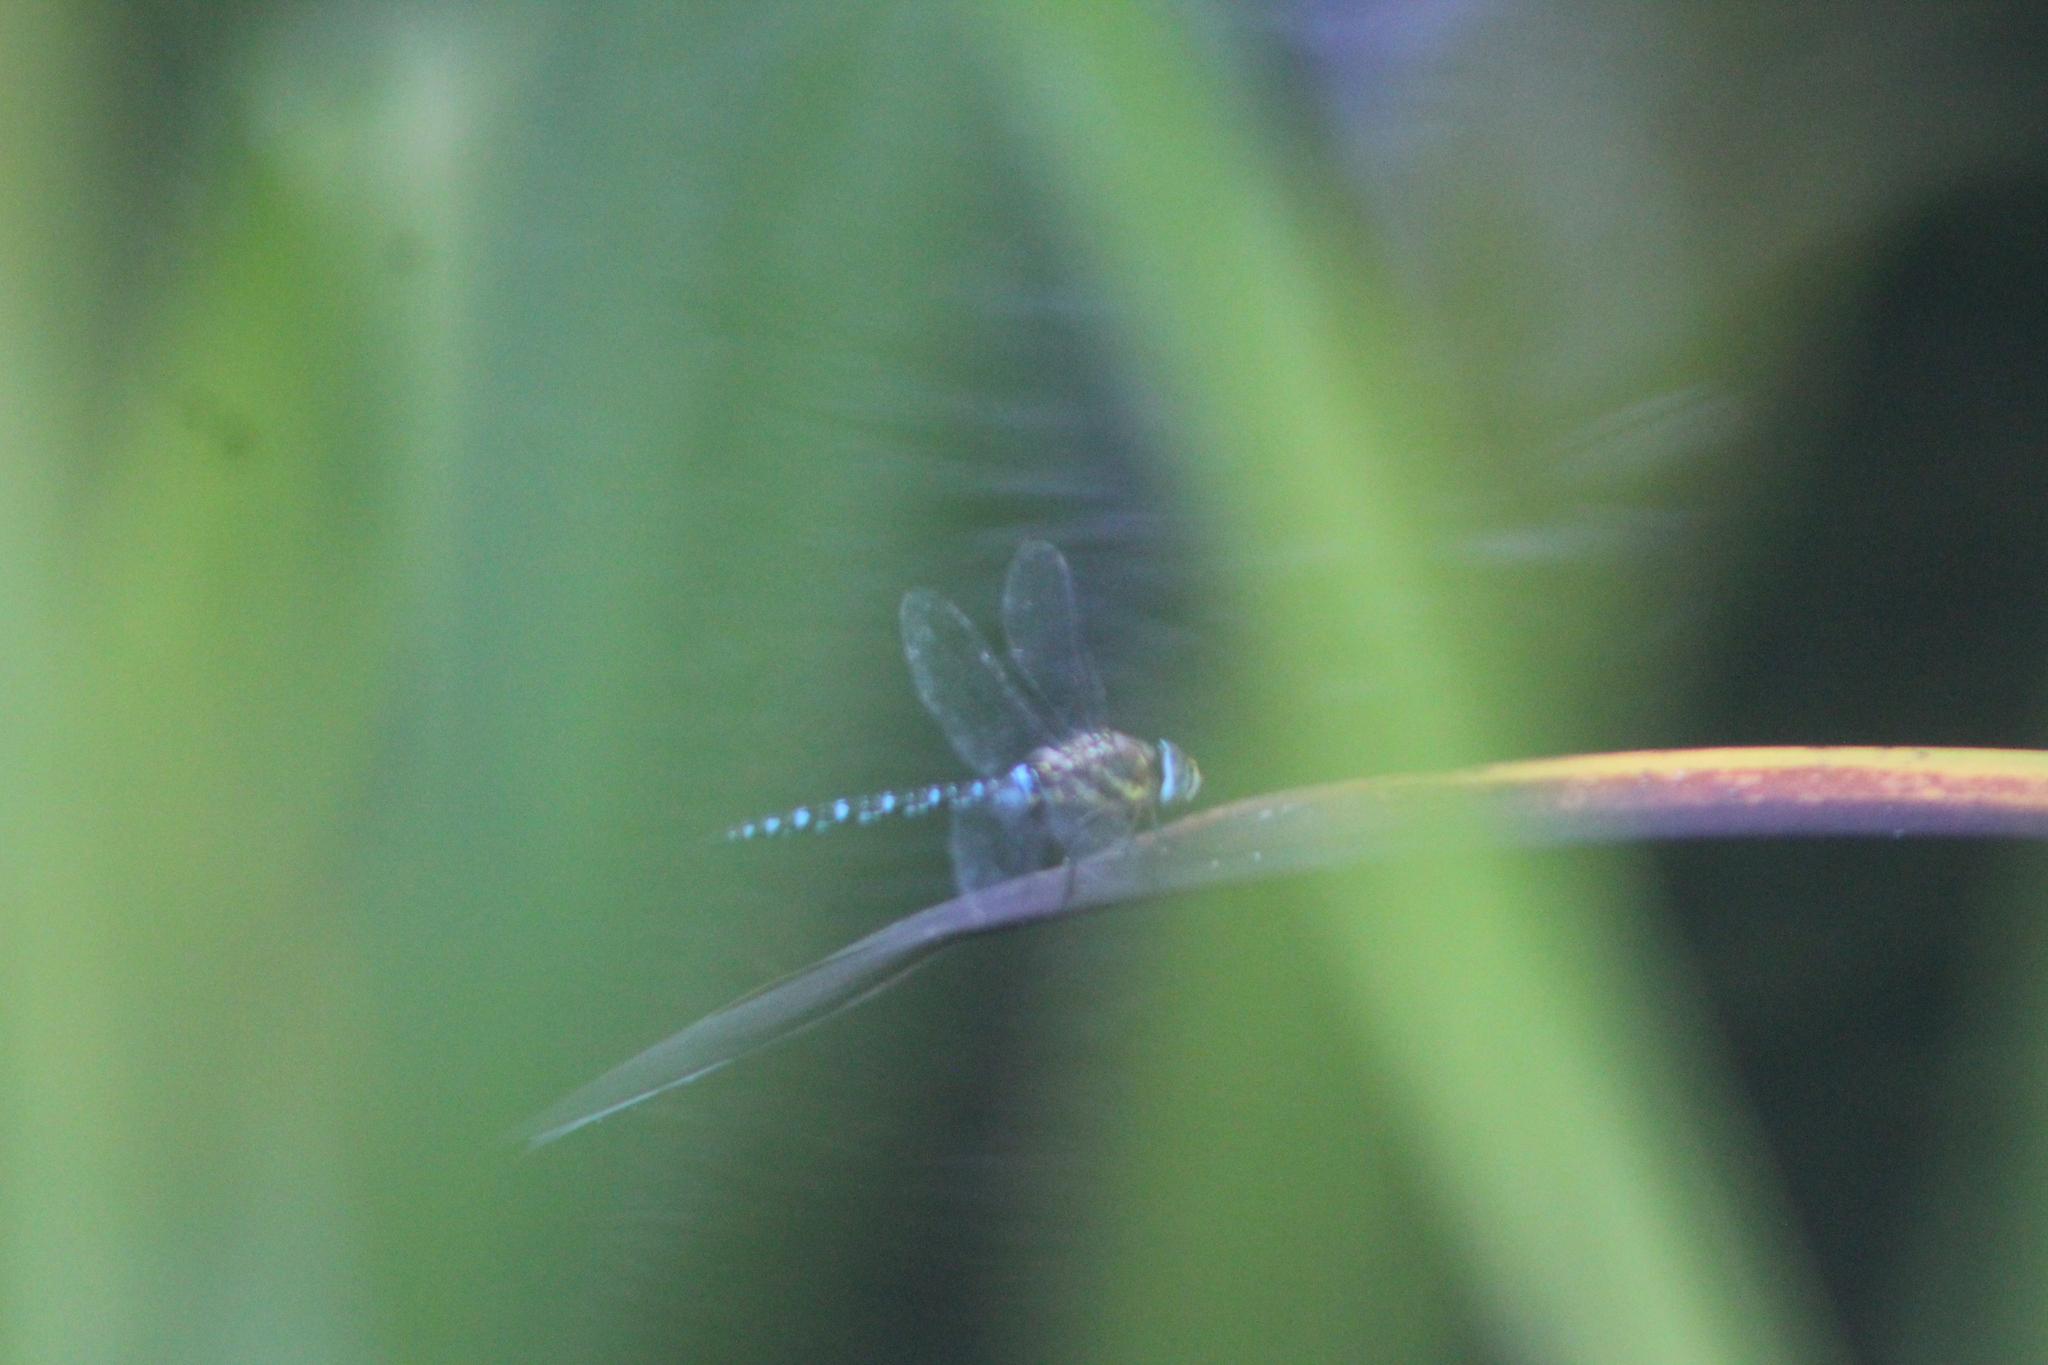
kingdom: Animalia
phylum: Arthropoda
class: Insecta
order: Odonata
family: Aeshnidae
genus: Aeshna
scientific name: Aeshna mixta
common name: Migrant hawker
